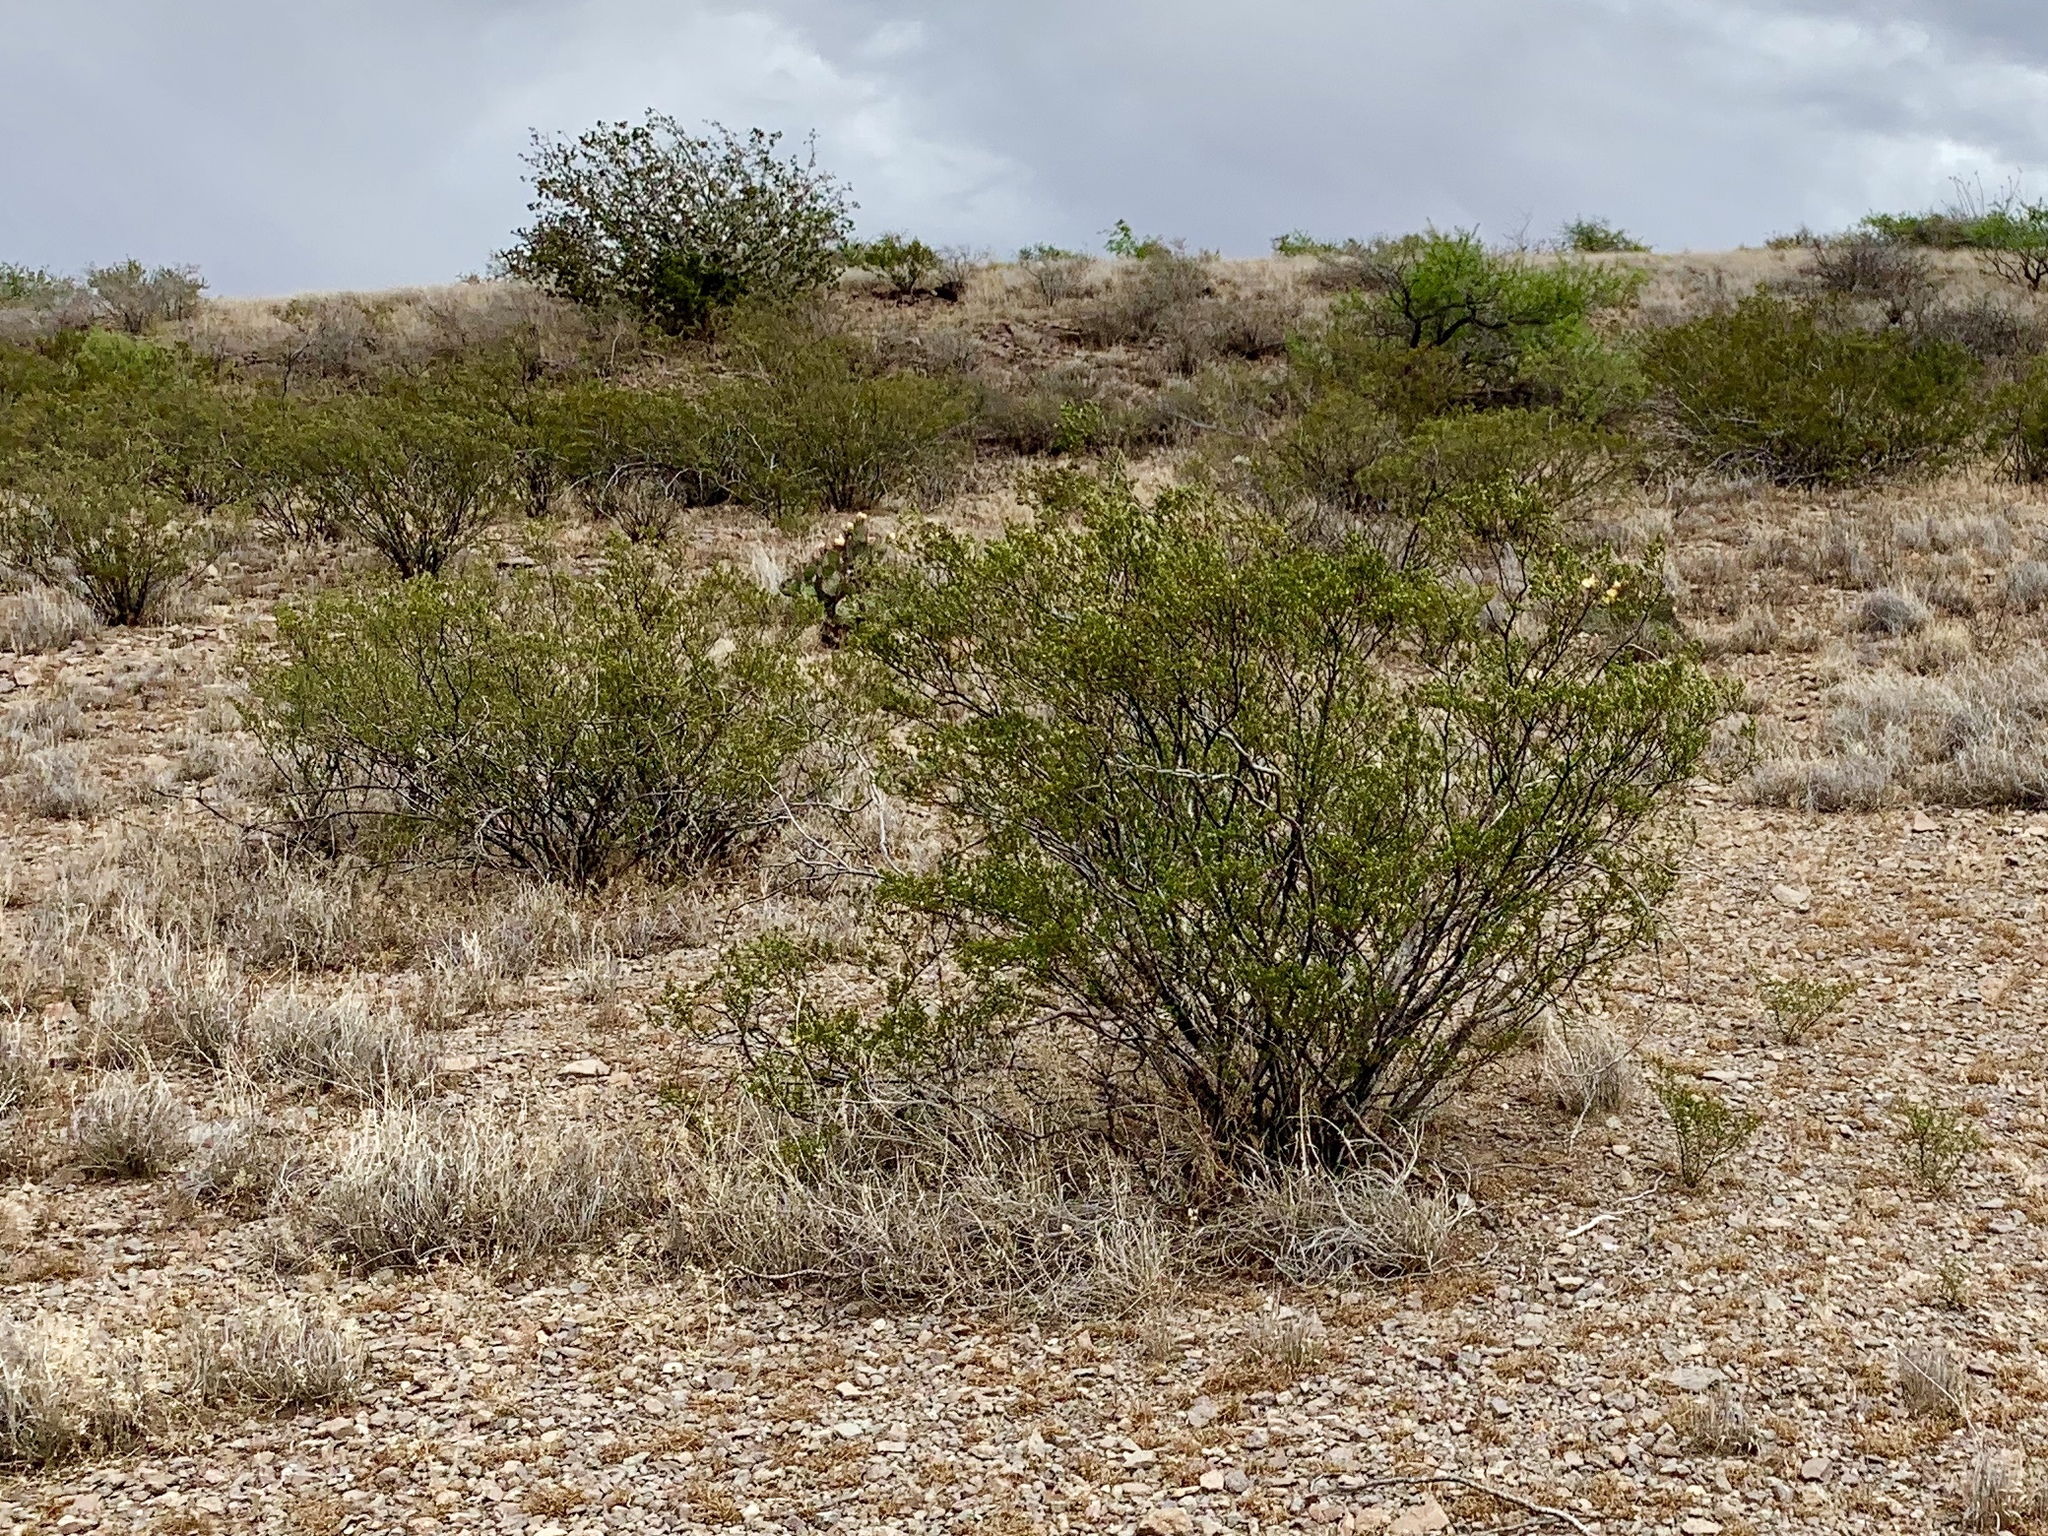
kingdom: Plantae
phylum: Tracheophyta
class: Magnoliopsida
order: Zygophyllales
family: Zygophyllaceae
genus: Larrea
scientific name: Larrea tridentata
